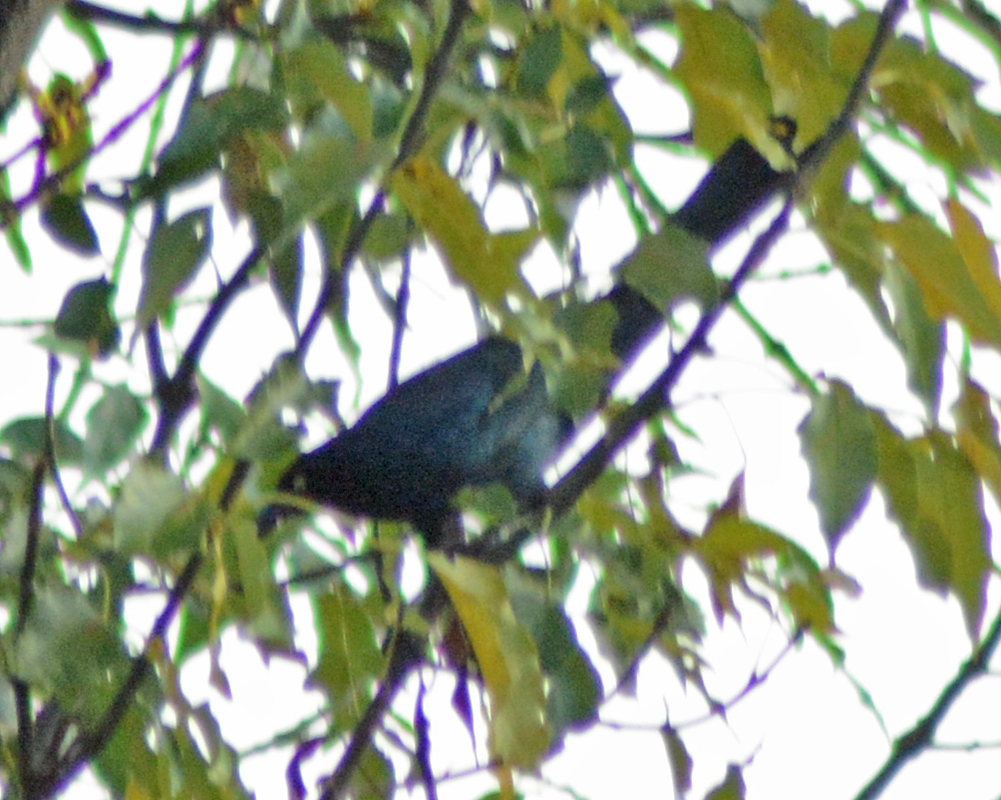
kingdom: Animalia
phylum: Chordata
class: Aves
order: Passeriformes
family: Icteridae
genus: Quiscalus
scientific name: Quiscalus mexicanus
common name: Great-tailed grackle
